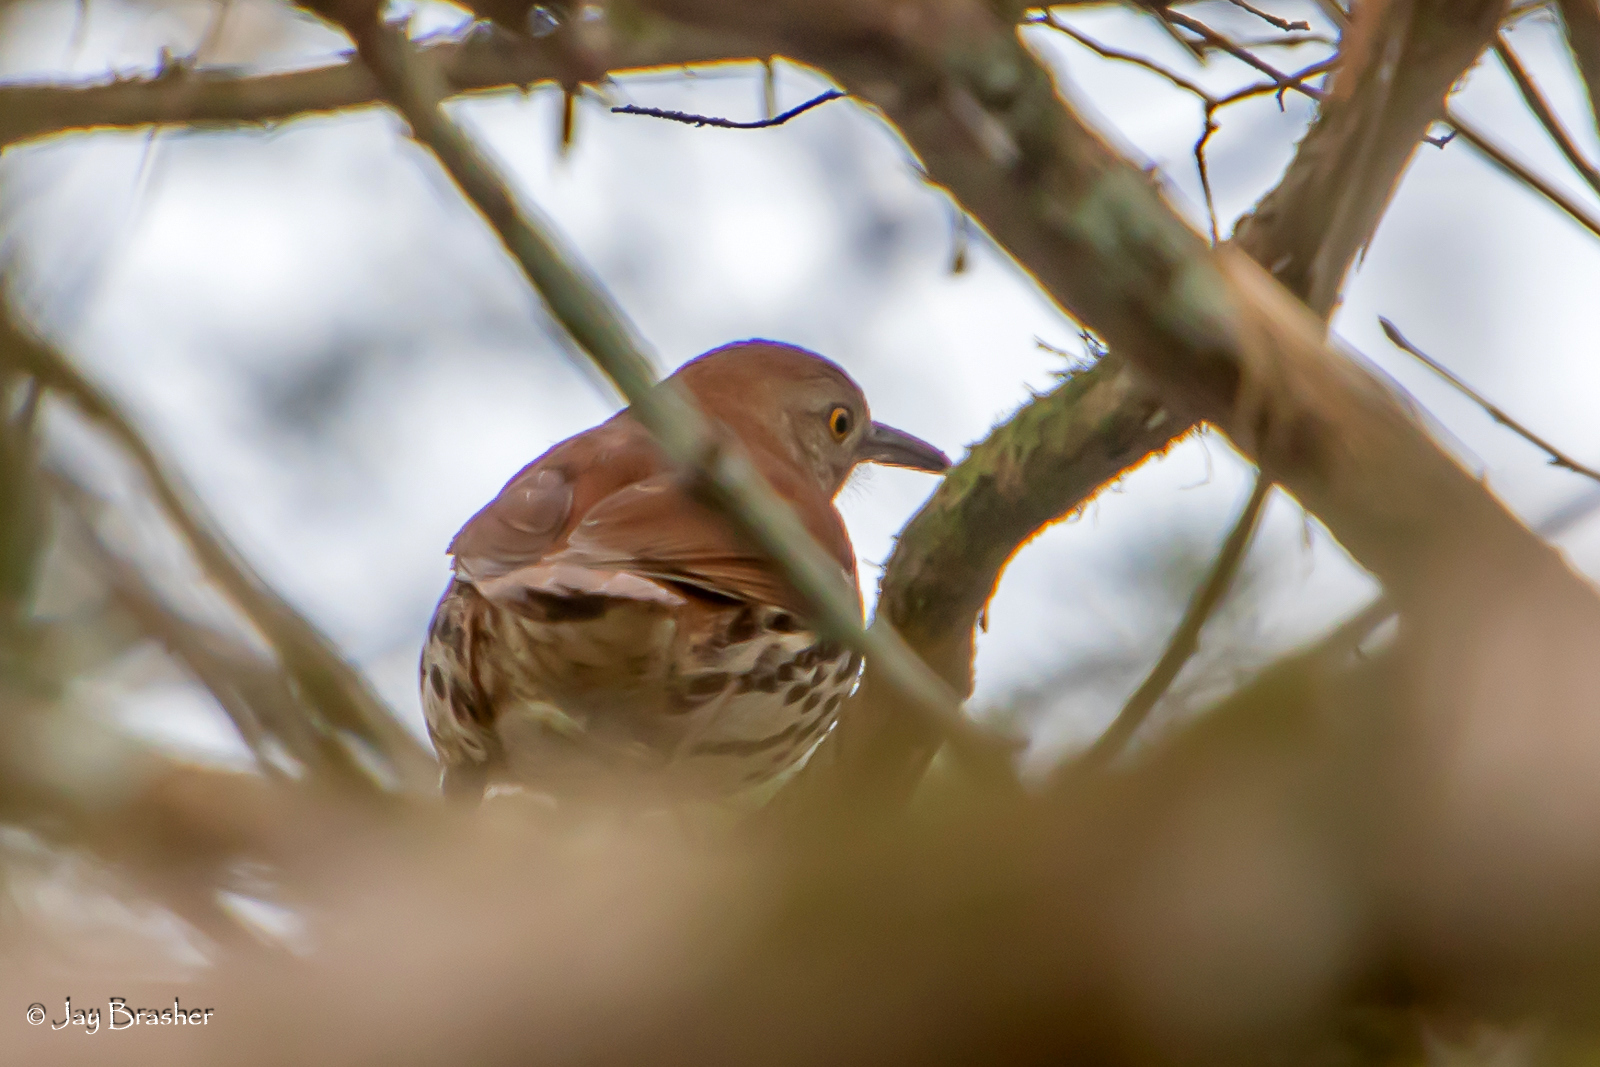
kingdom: Animalia
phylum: Chordata
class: Aves
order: Passeriformes
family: Mimidae
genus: Toxostoma
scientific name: Toxostoma rufum
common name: Brown thrasher
